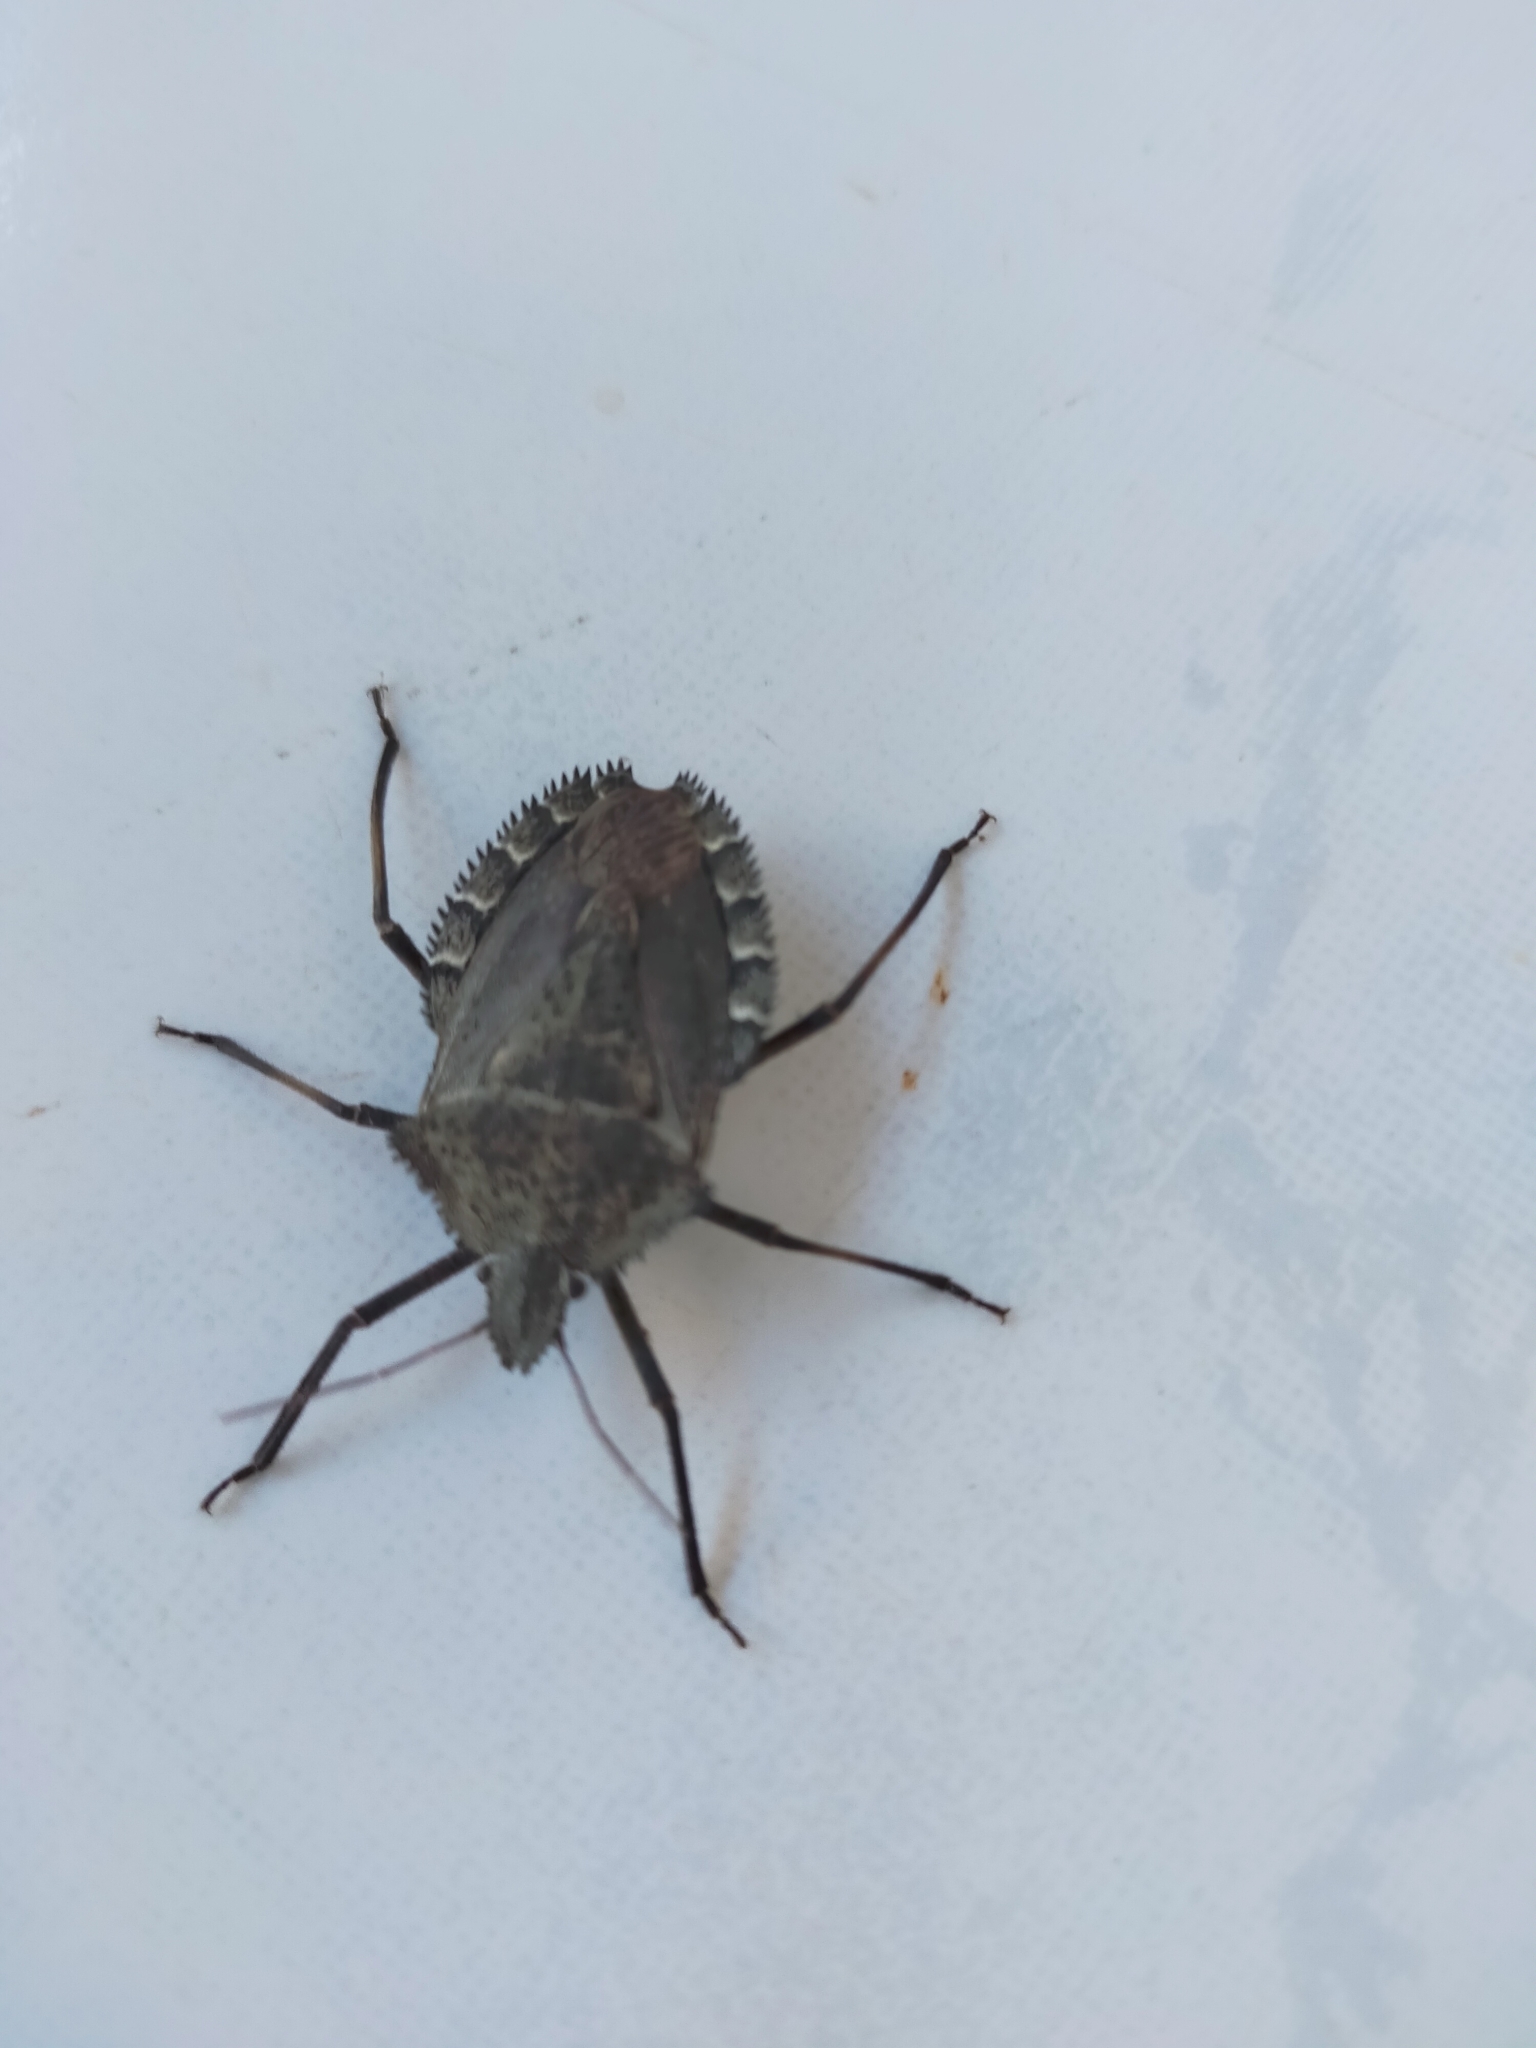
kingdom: Animalia
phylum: Arthropoda
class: Insecta
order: Hemiptera
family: Pentatomidae
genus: Mustha
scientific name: Mustha spinosula
